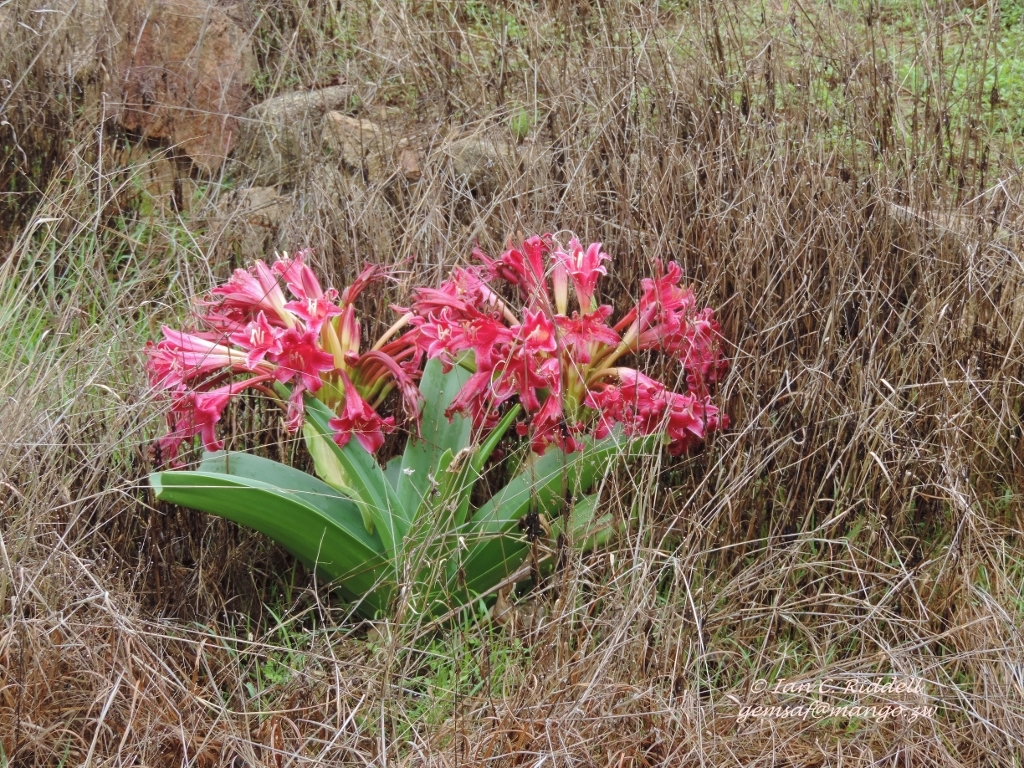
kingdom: Plantae
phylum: Tracheophyta
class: Liliopsida
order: Asparagales
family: Amaryllidaceae
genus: Crinum
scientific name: Crinum stuhlmannii
